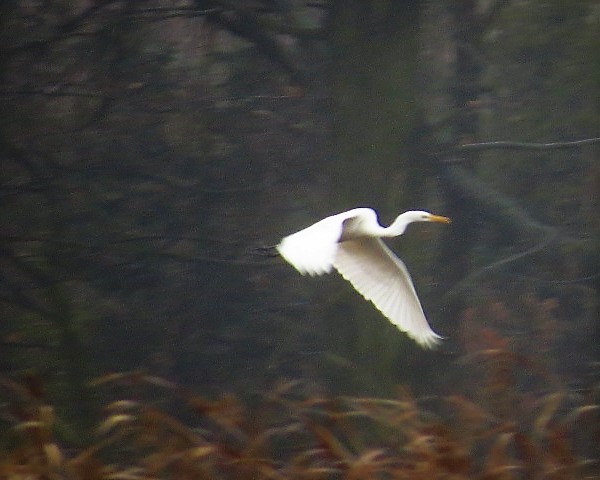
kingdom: Animalia
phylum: Chordata
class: Aves
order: Pelecaniformes
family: Ardeidae
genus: Ardea
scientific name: Ardea alba
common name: Great egret
